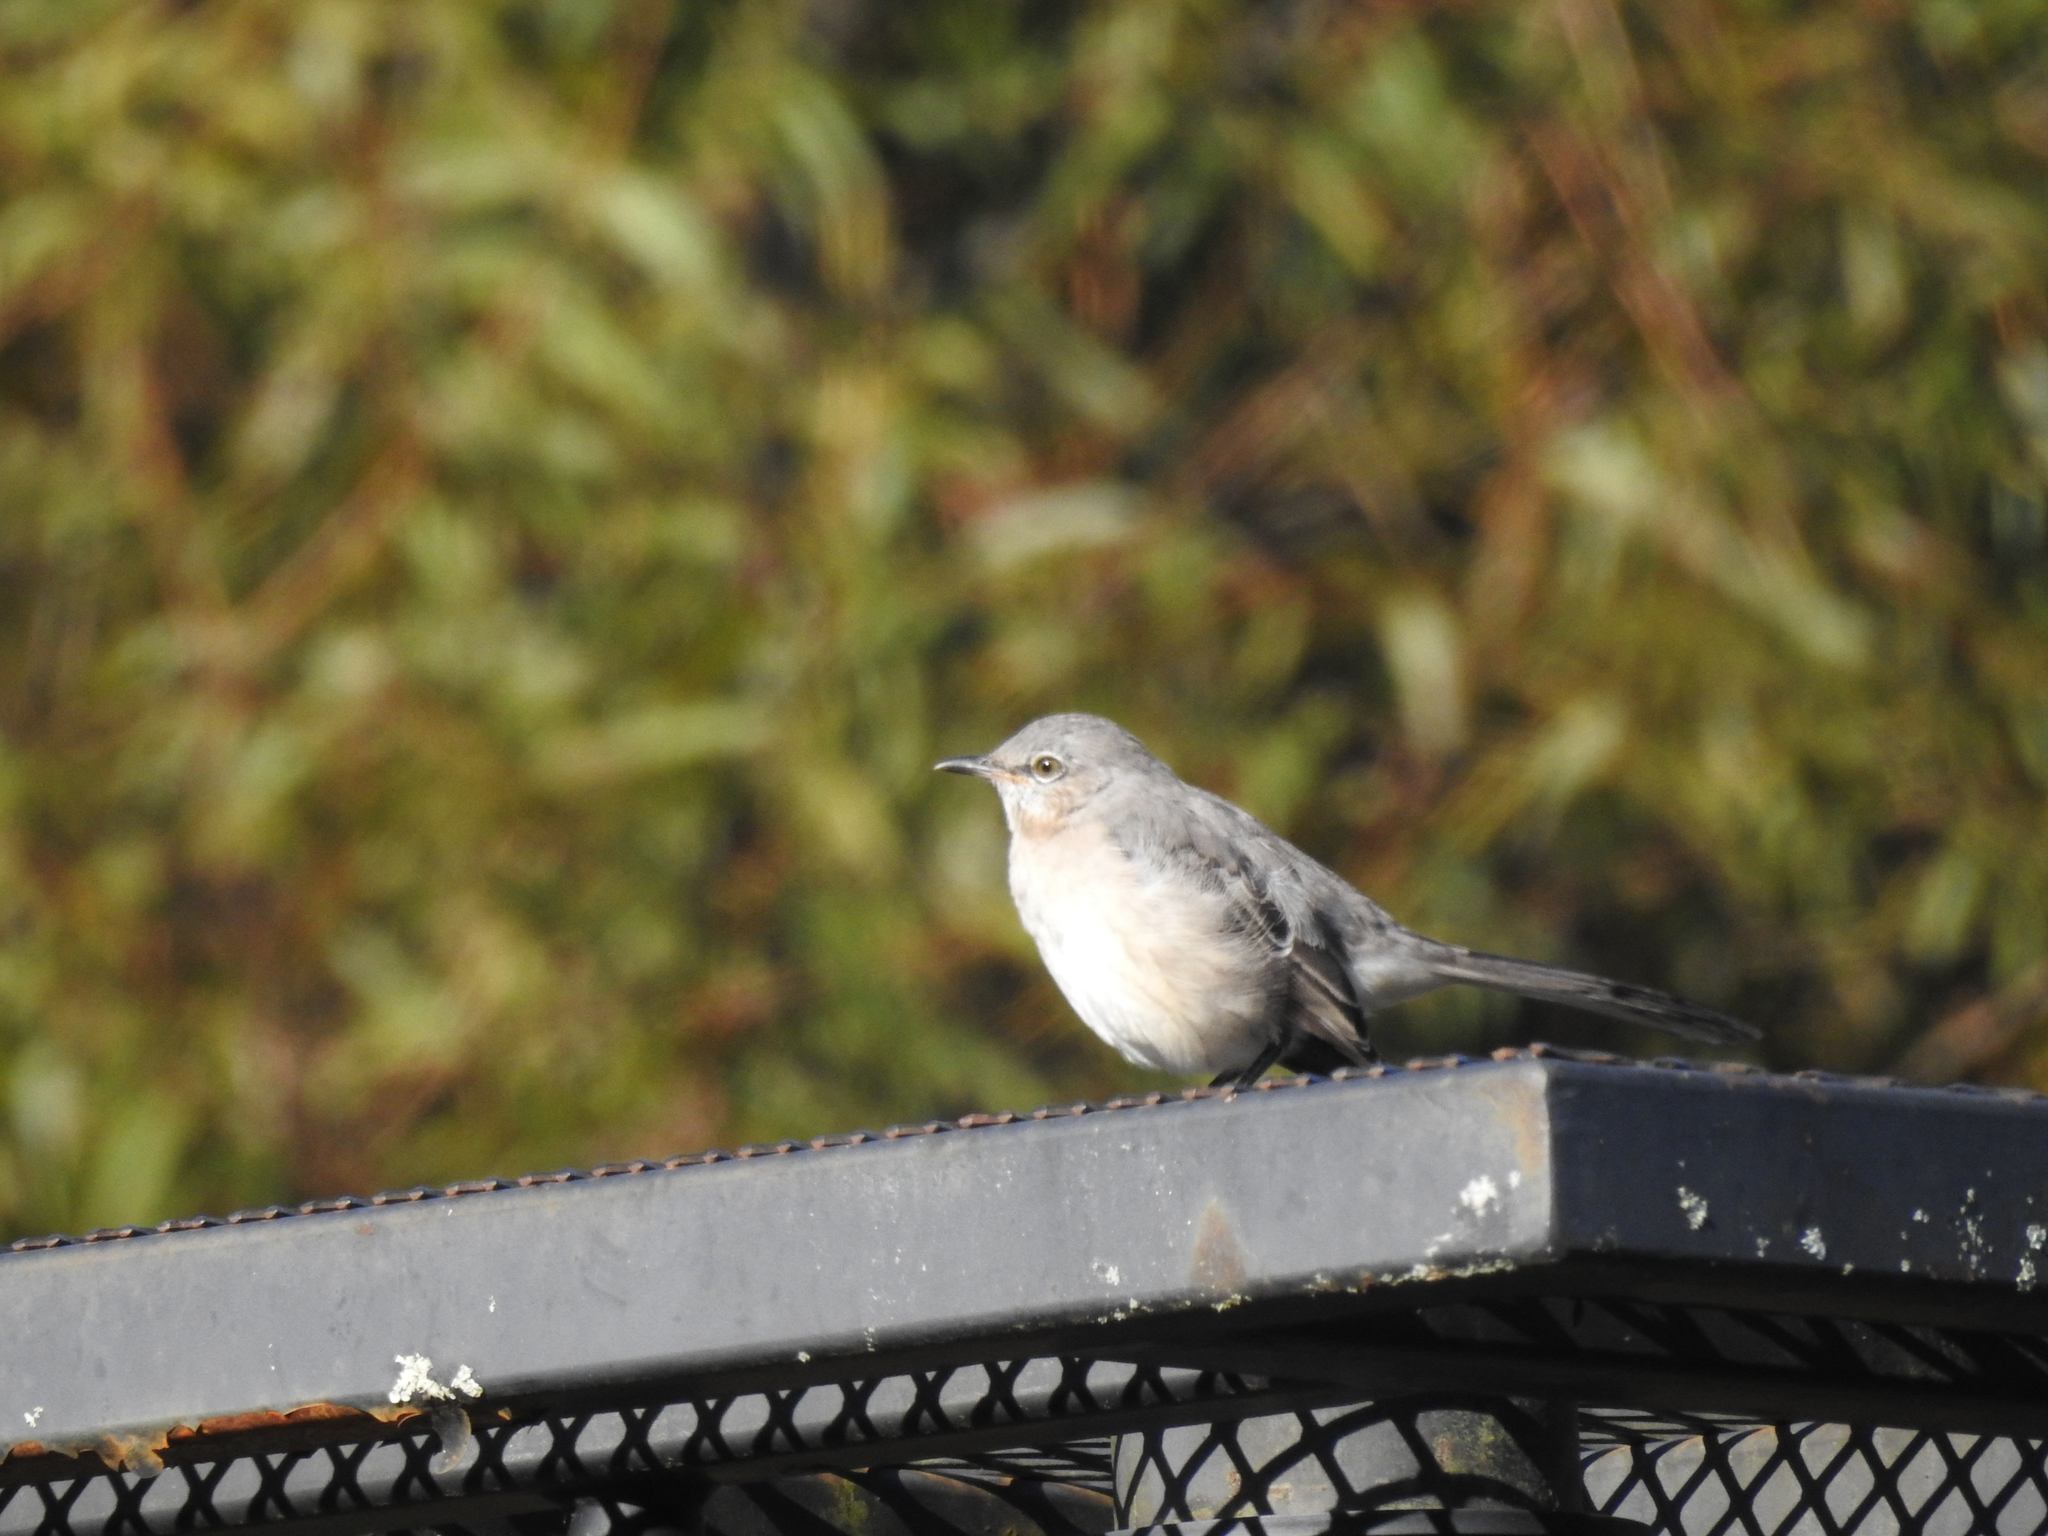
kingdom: Animalia
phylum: Chordata
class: Aves
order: Passeriformes
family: Mimidae
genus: Mimus
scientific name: Mimus polyglottos
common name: Northern mockingbird
